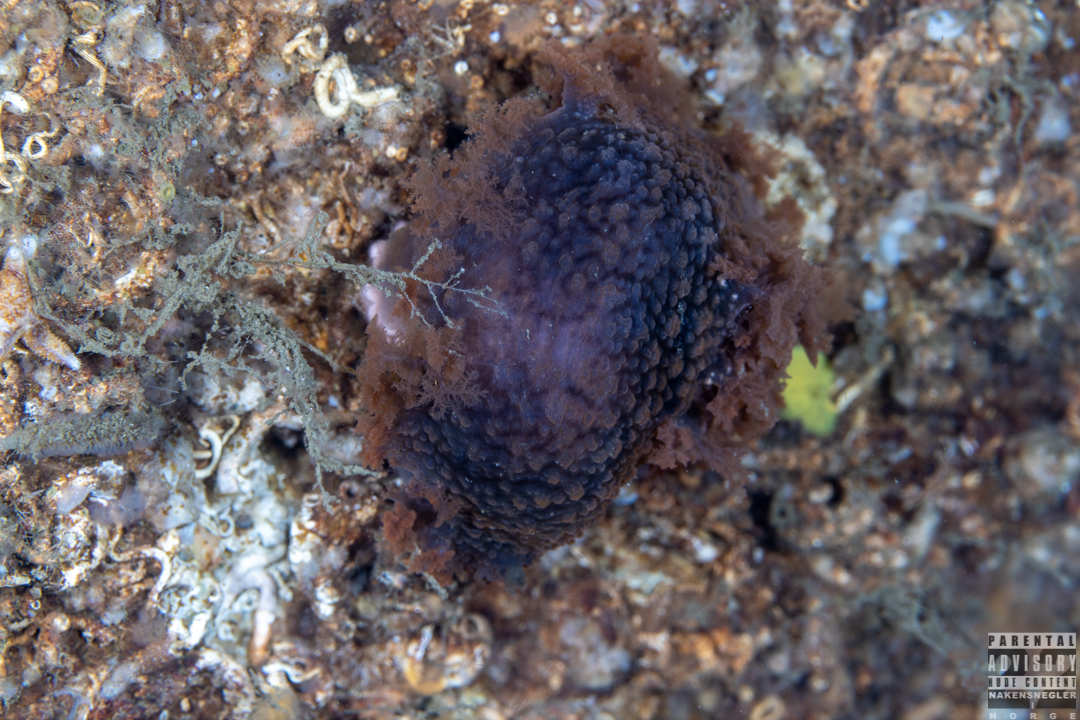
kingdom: Animalia
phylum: Mollusca
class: Gastropoda
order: Nudibranchia
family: Tritoniidae
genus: Tritonia
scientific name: Tritonia hombergii
